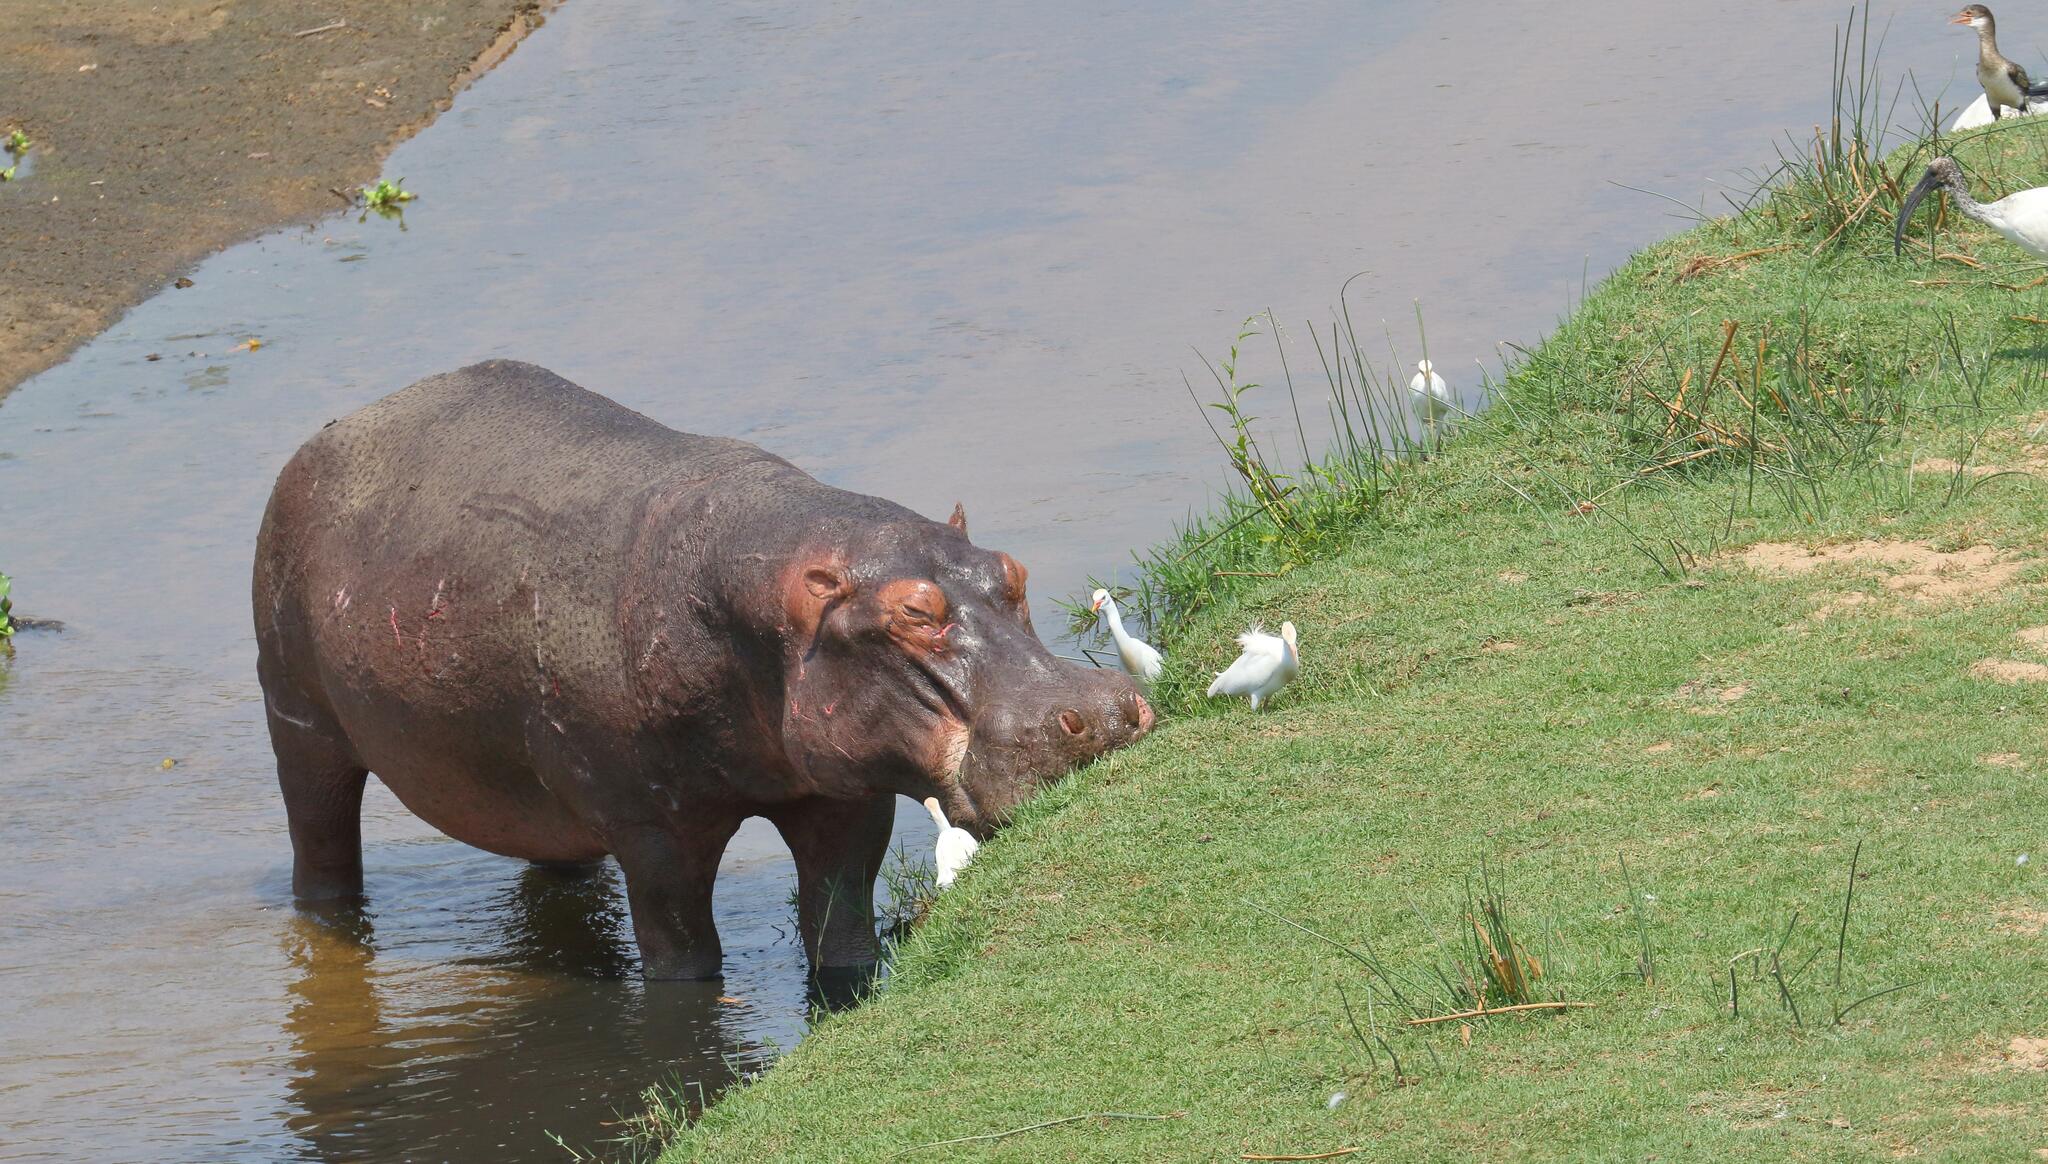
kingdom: Animalia
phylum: Chordata
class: Mammalia
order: Artiodactyla
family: Hippopotamidae
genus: Hippopotamus
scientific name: Hippopotamus amphibius
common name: Common hippopotamus
